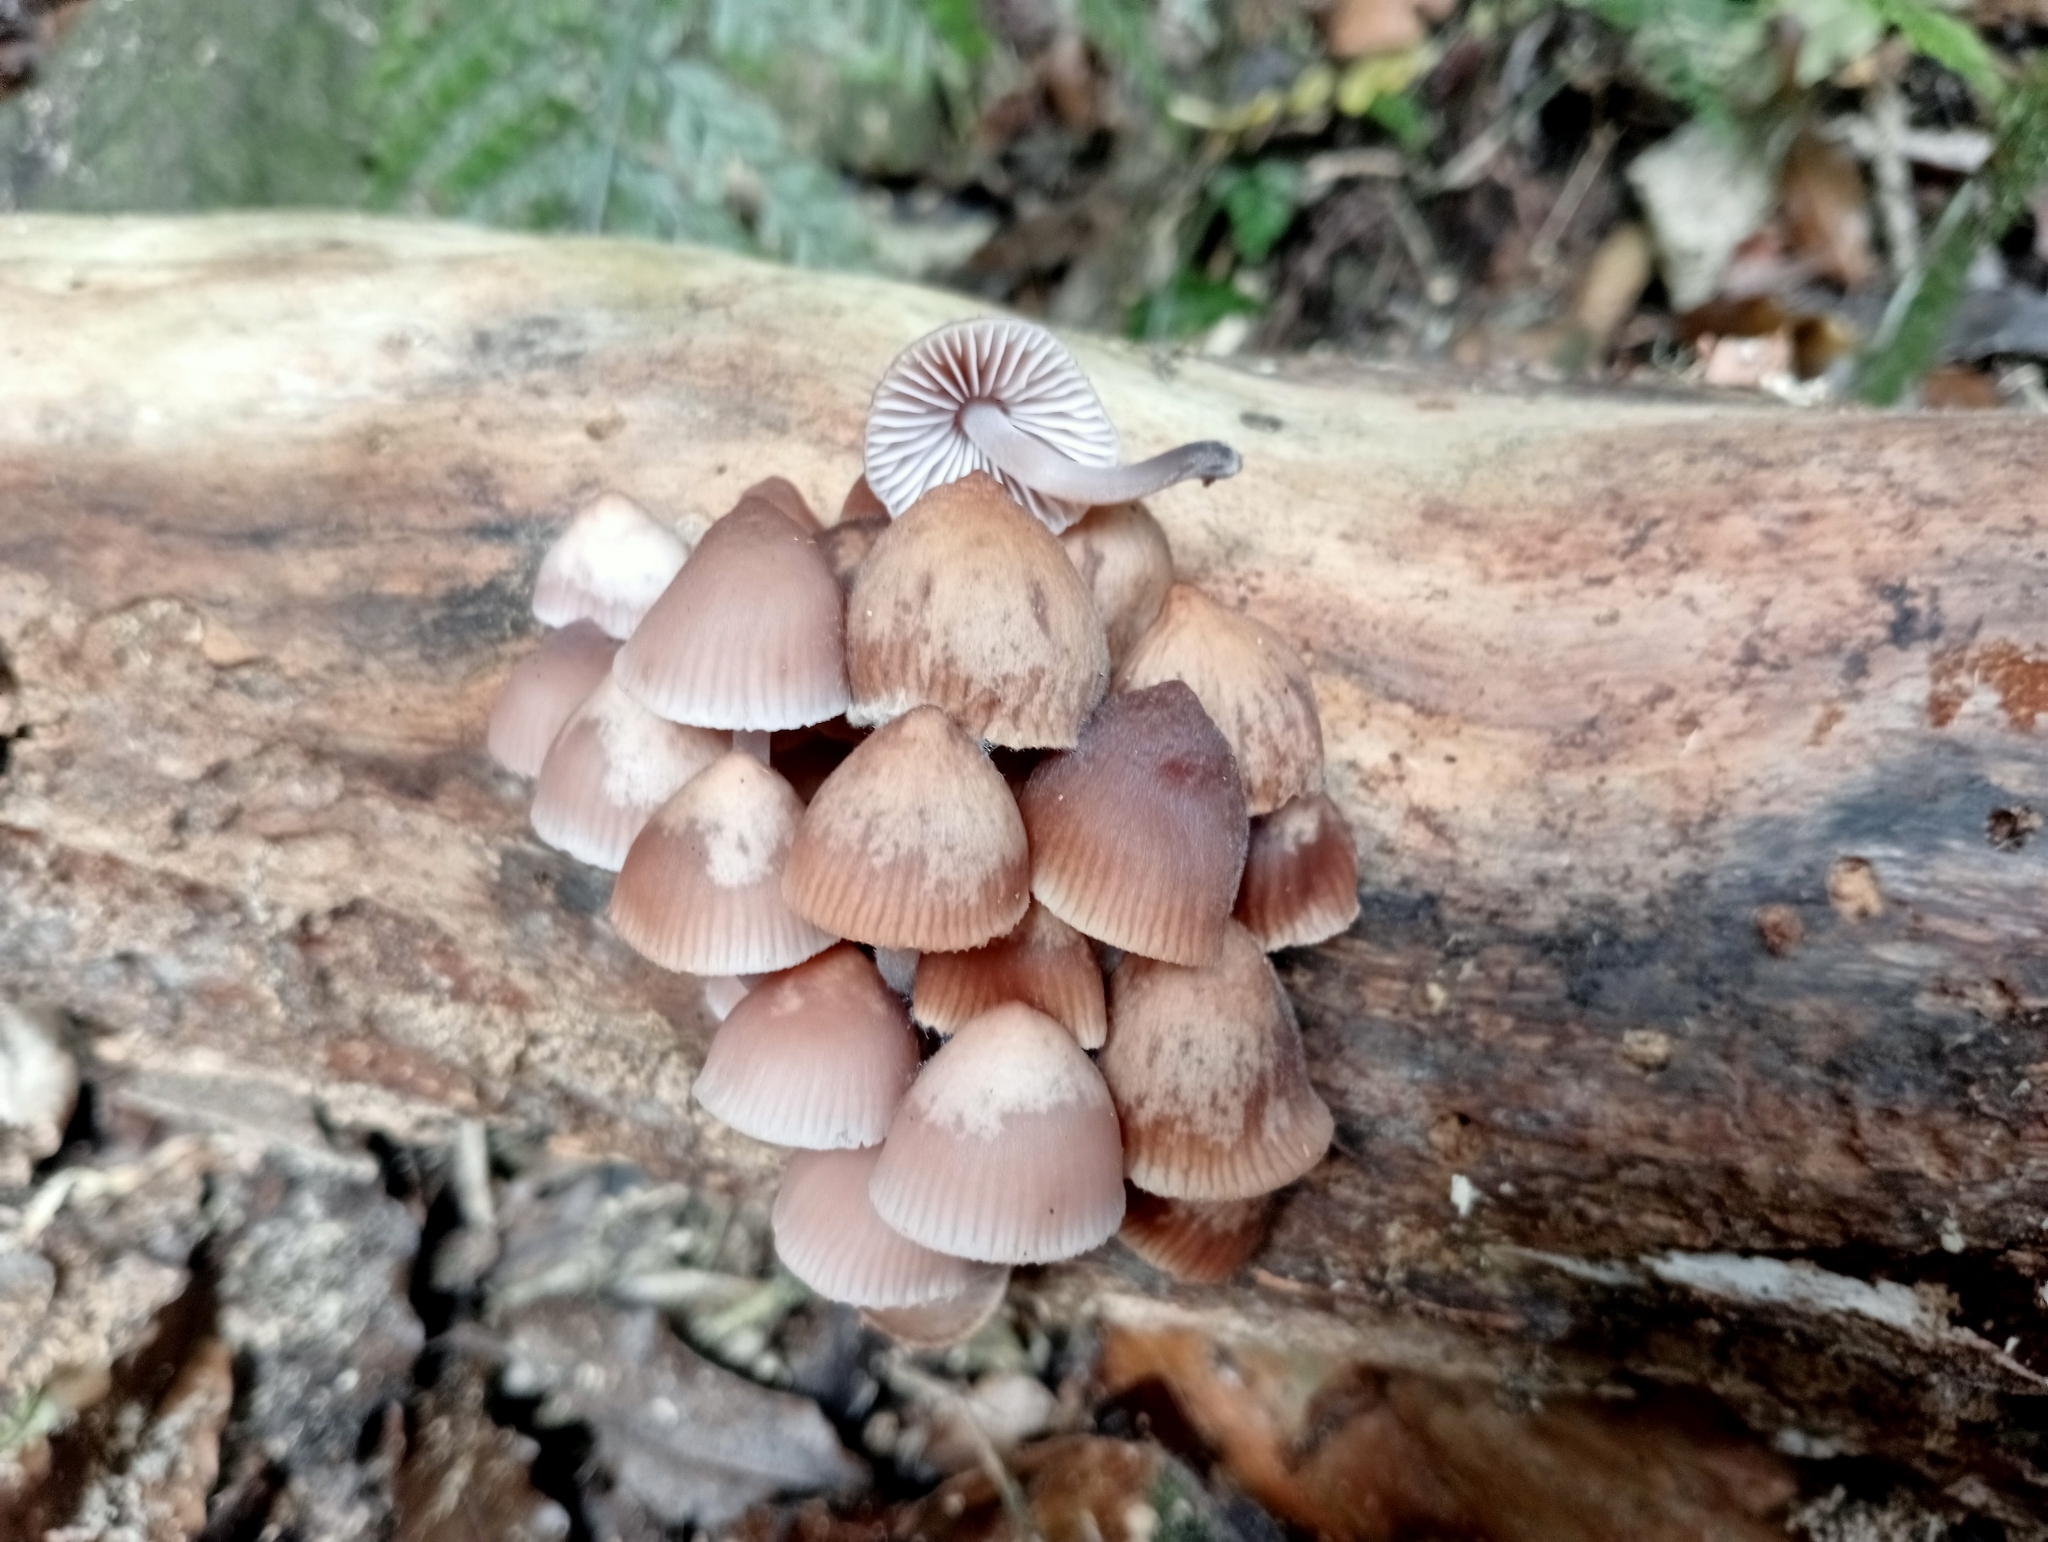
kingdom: Fungi
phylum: Basidiomycota
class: Agaricomycetes
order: Agaricales
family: Mycenaceae
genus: Mycena
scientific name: Mycena clarkeana
